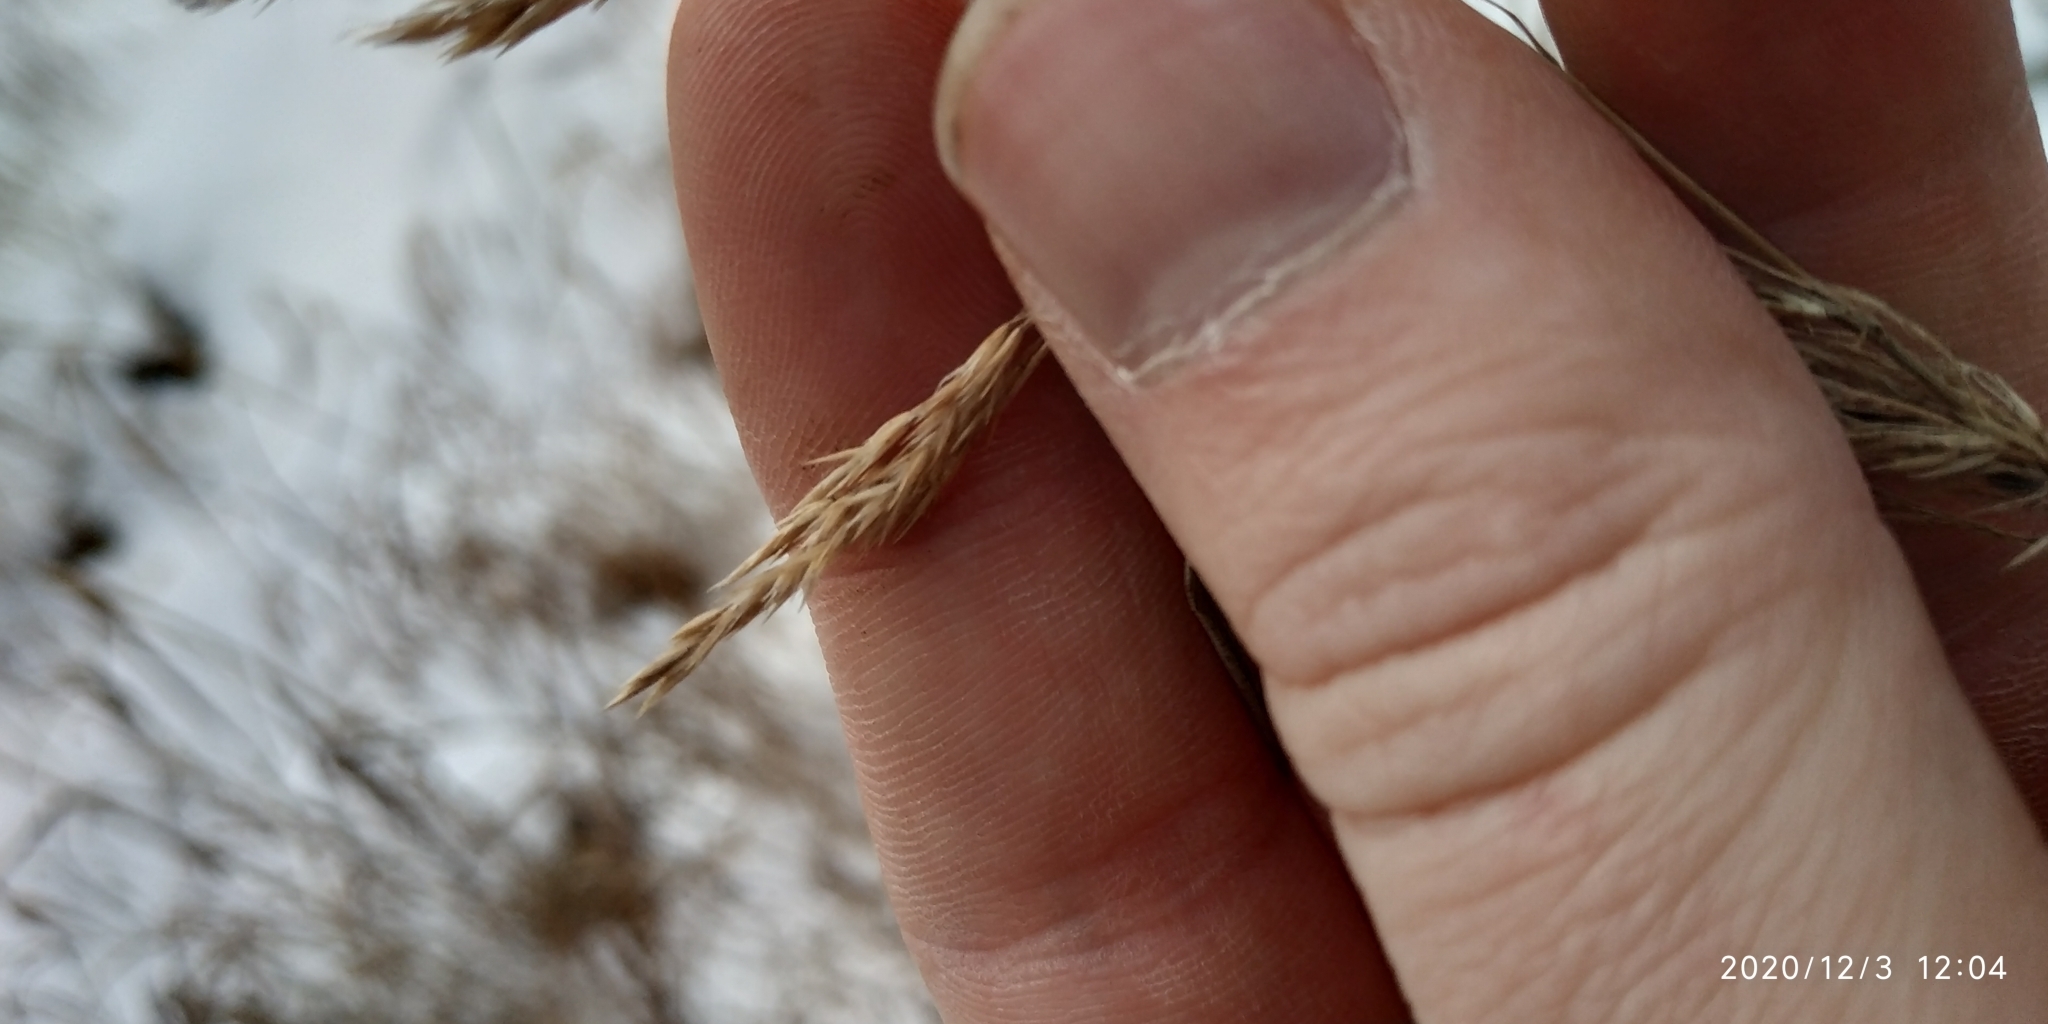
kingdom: Plantae
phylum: Tracheophyta
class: Liliopsida
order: Poales
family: Poaceae
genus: Calamagrostis
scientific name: Calamagrostis purpurea
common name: Scandinavian small-reed
